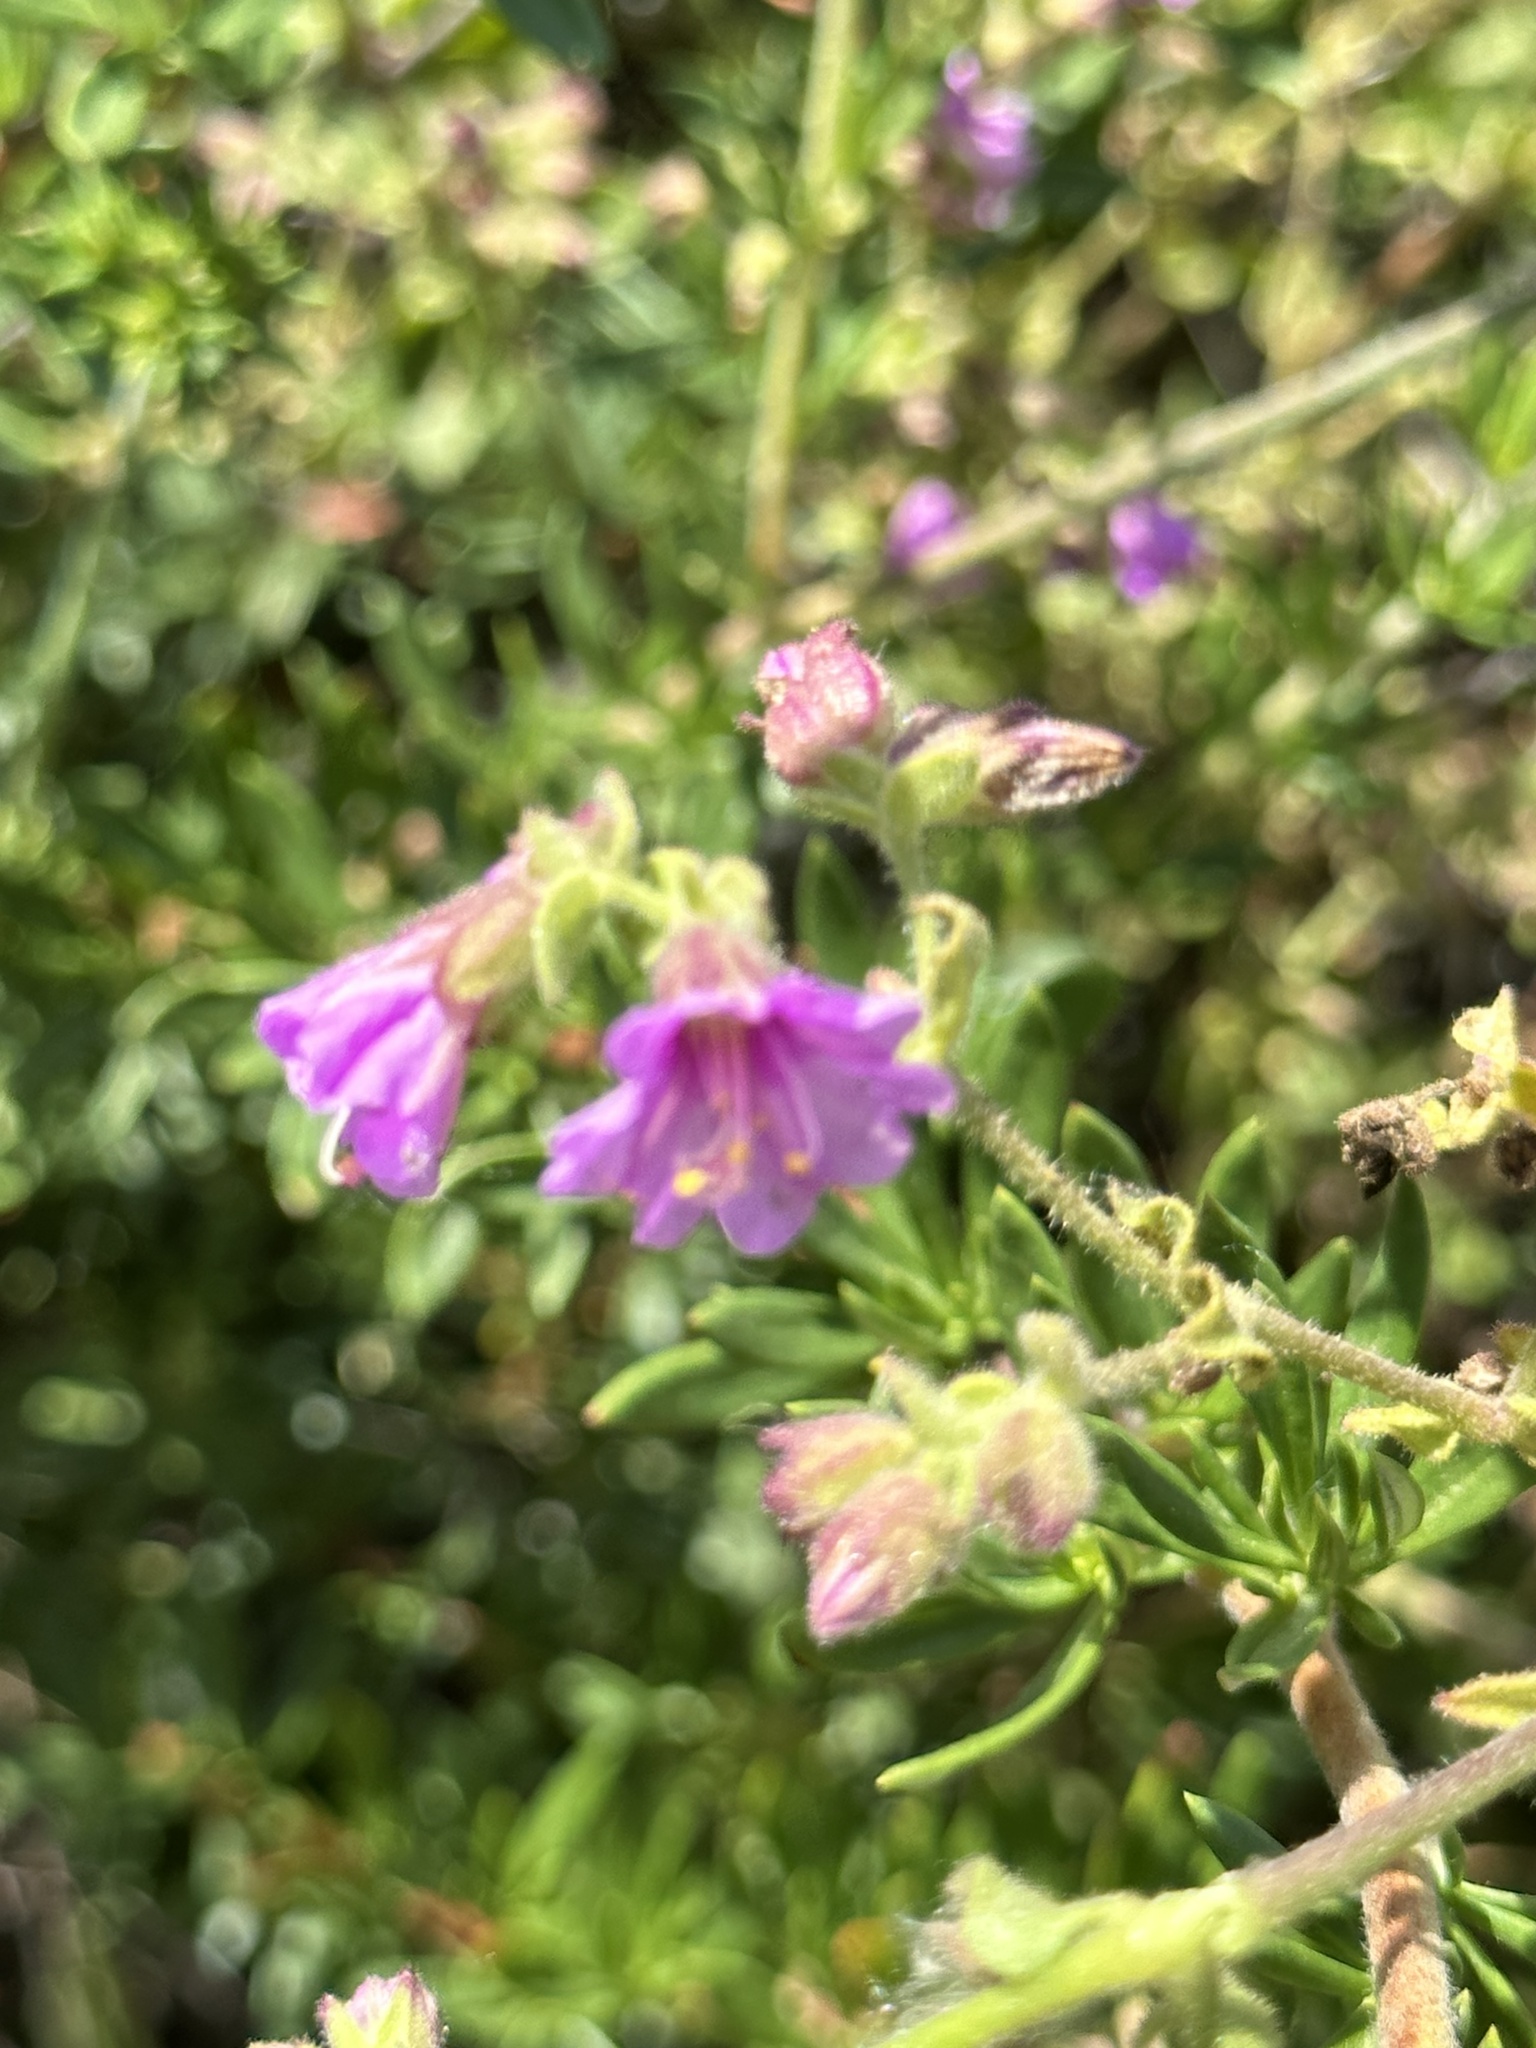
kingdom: Plantae
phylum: Tracheophyta
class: Magnoliopsida
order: Caryophyllales
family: Nyctaginaceae
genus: Mirabilis
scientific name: Mirabilis laevis
